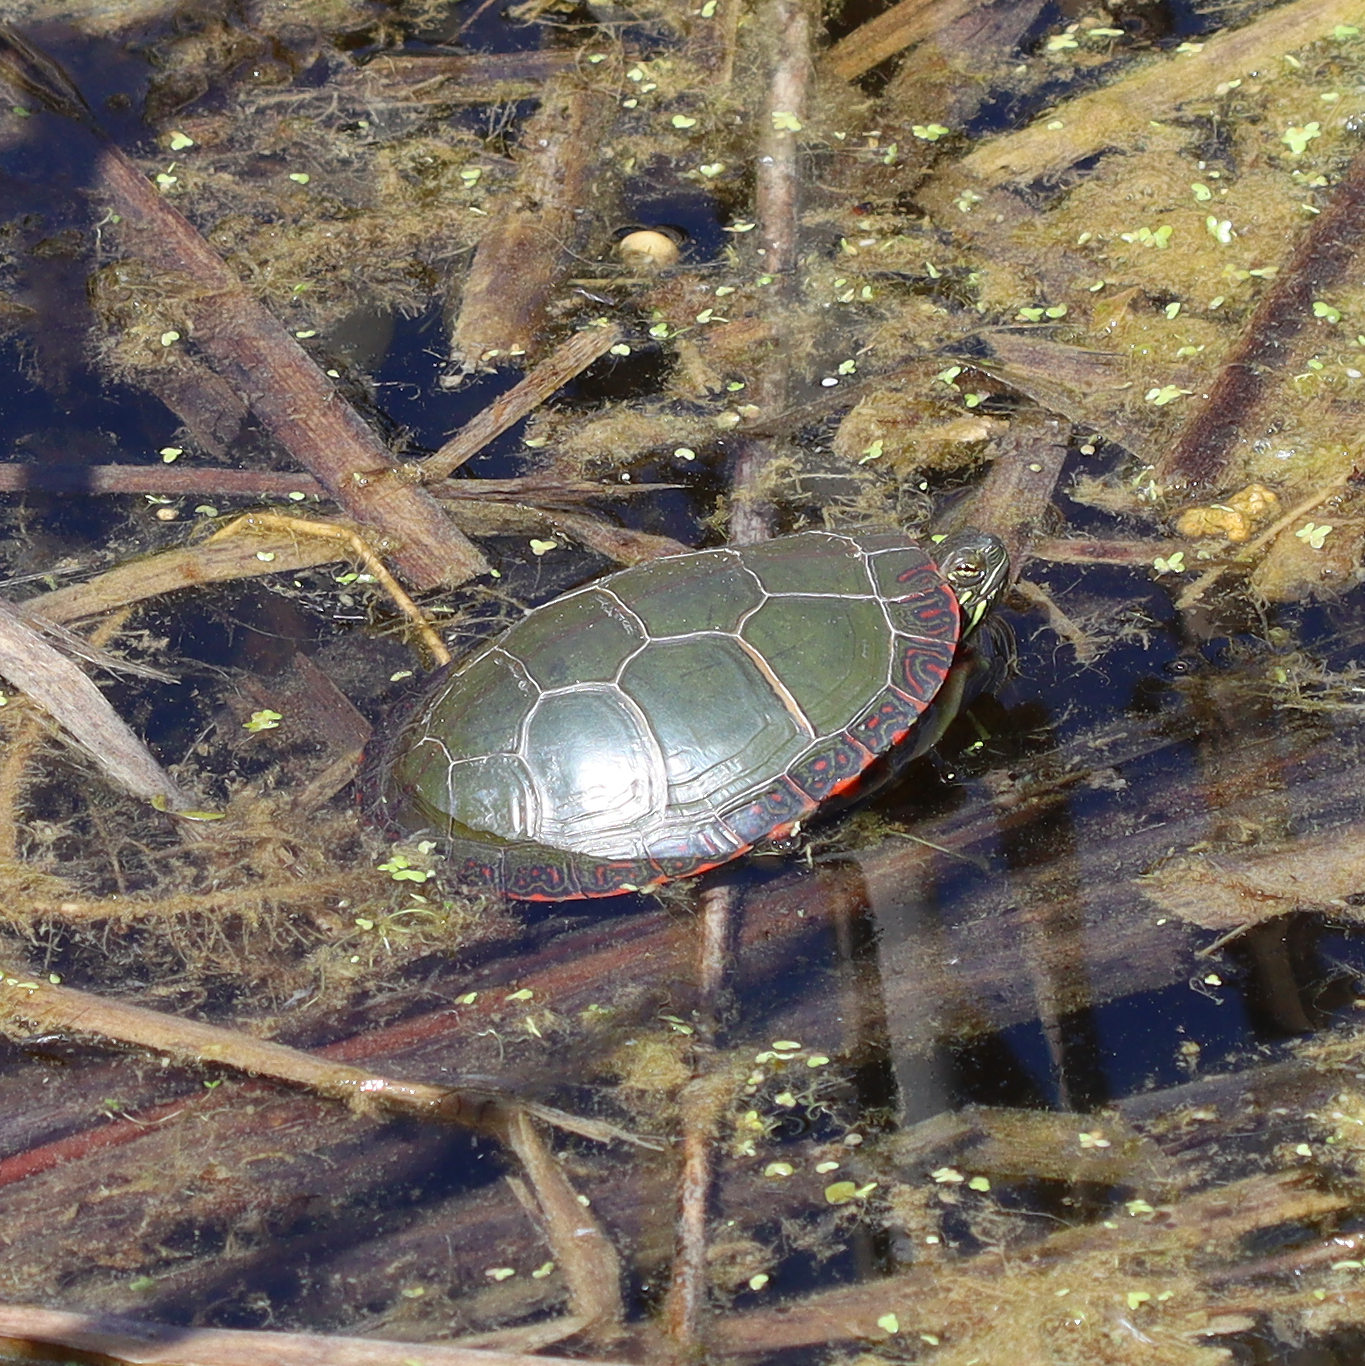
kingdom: Animalia
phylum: Chordata
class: Testudines
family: Emydidae
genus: Chrysemys
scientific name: Chrysemys picta
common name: Painted turtle
